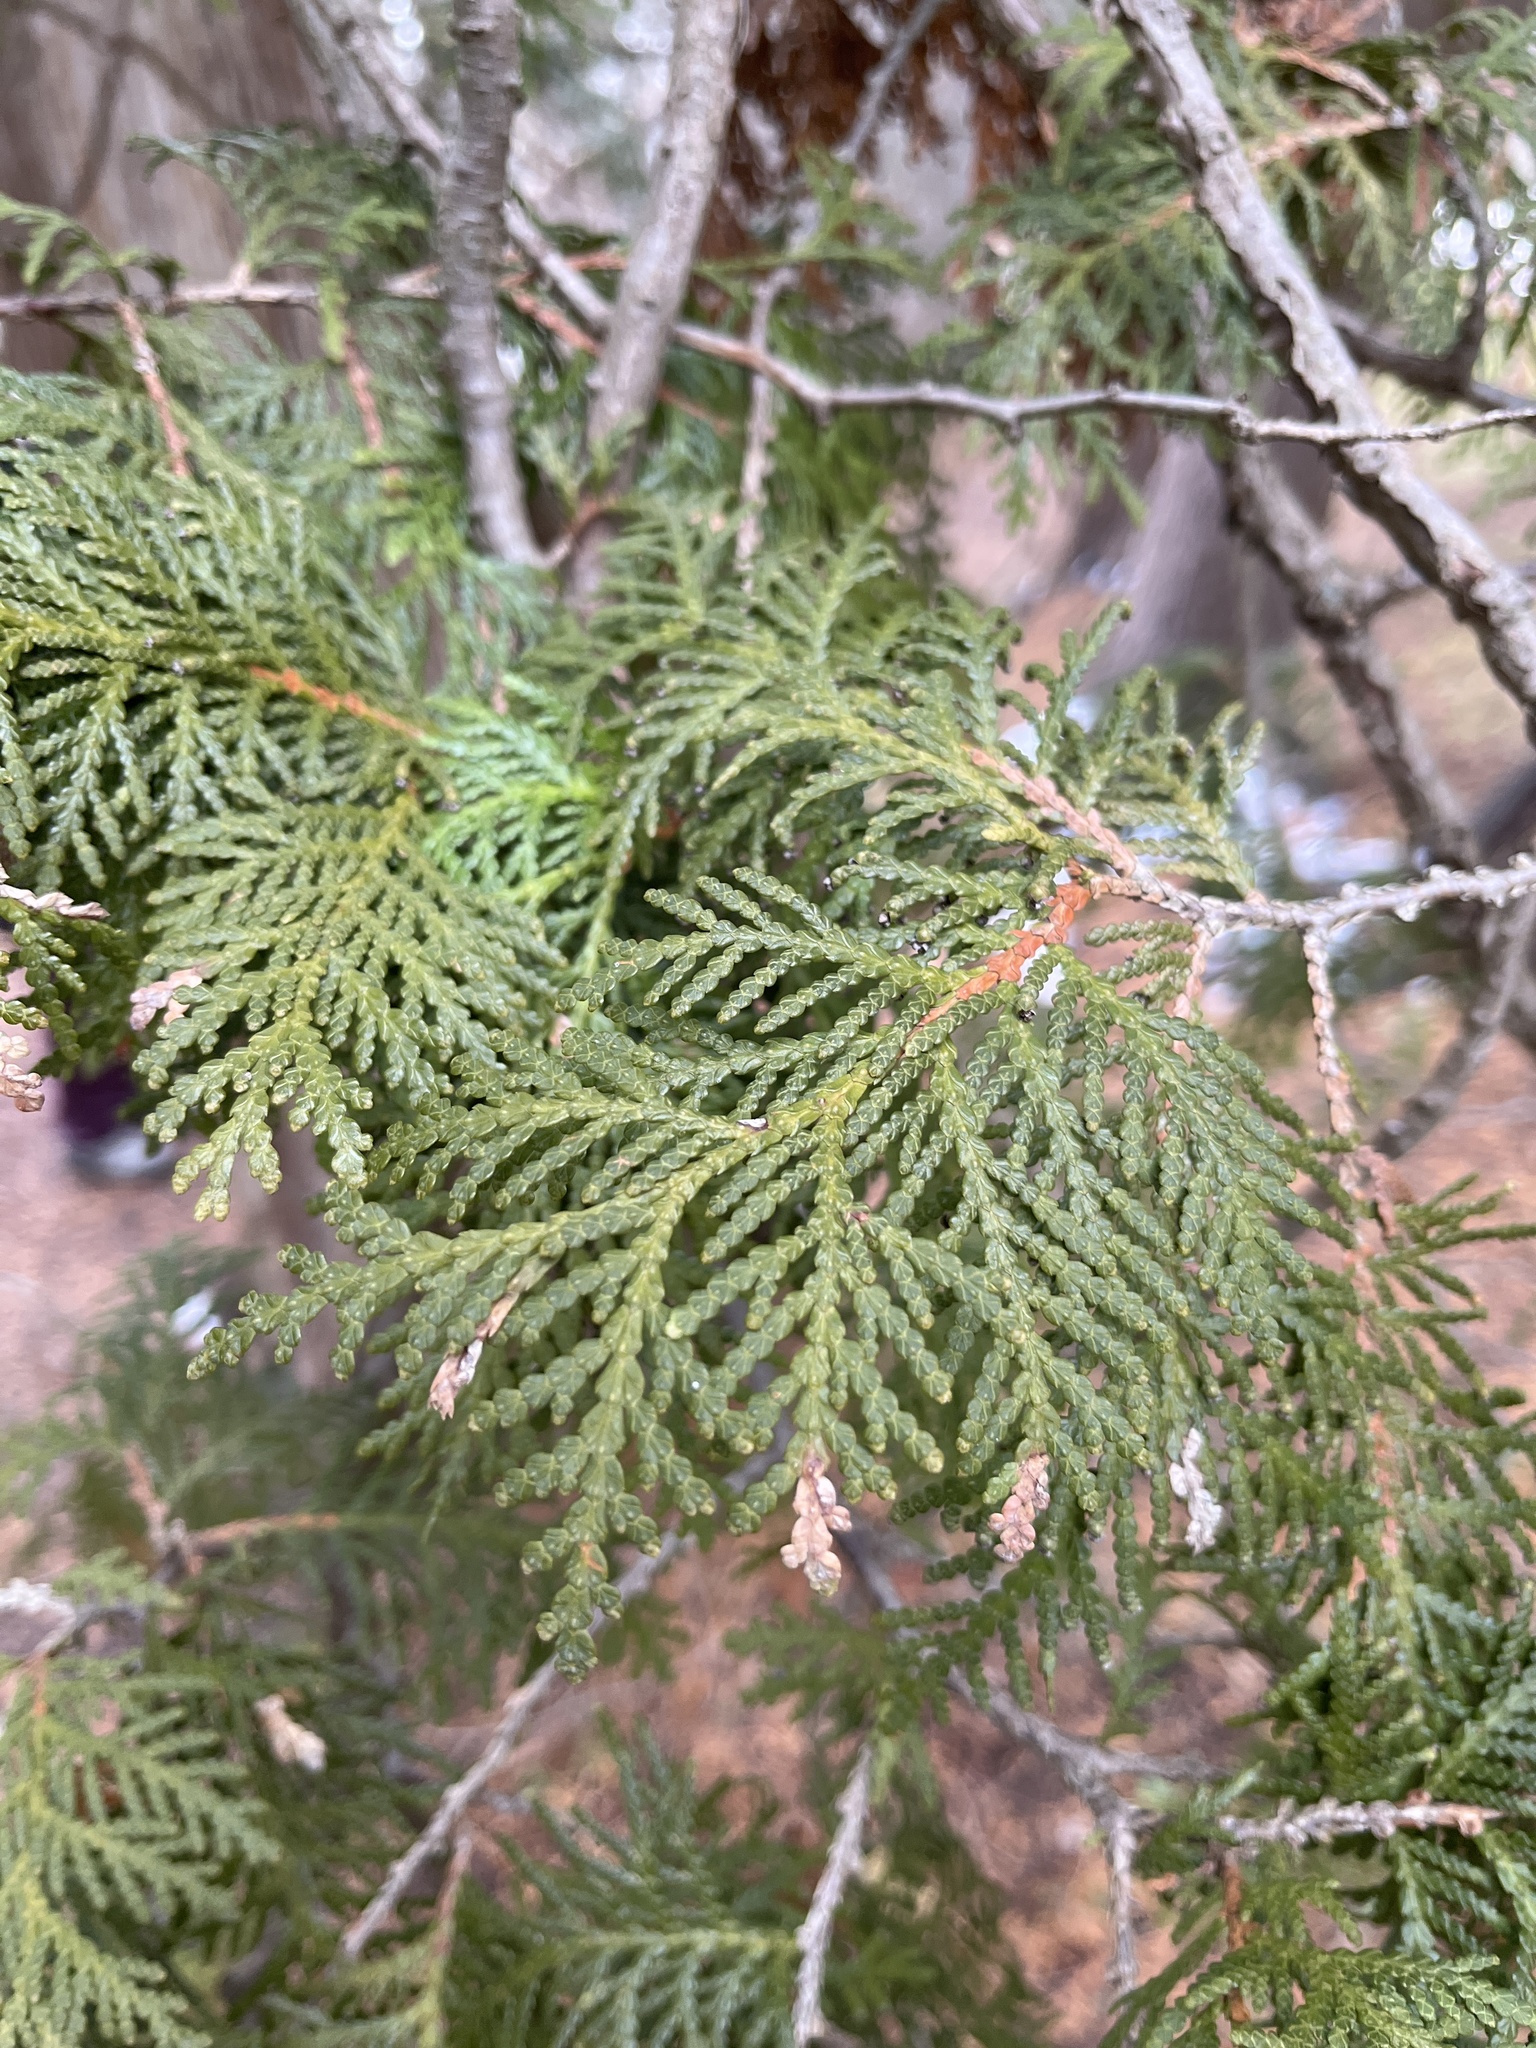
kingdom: Plantae
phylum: Tracheophyta
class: Pinopsida
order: Pinales
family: Cupressaceae
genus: Thuja
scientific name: Thuja occidentalis
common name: Northern white-cedar
